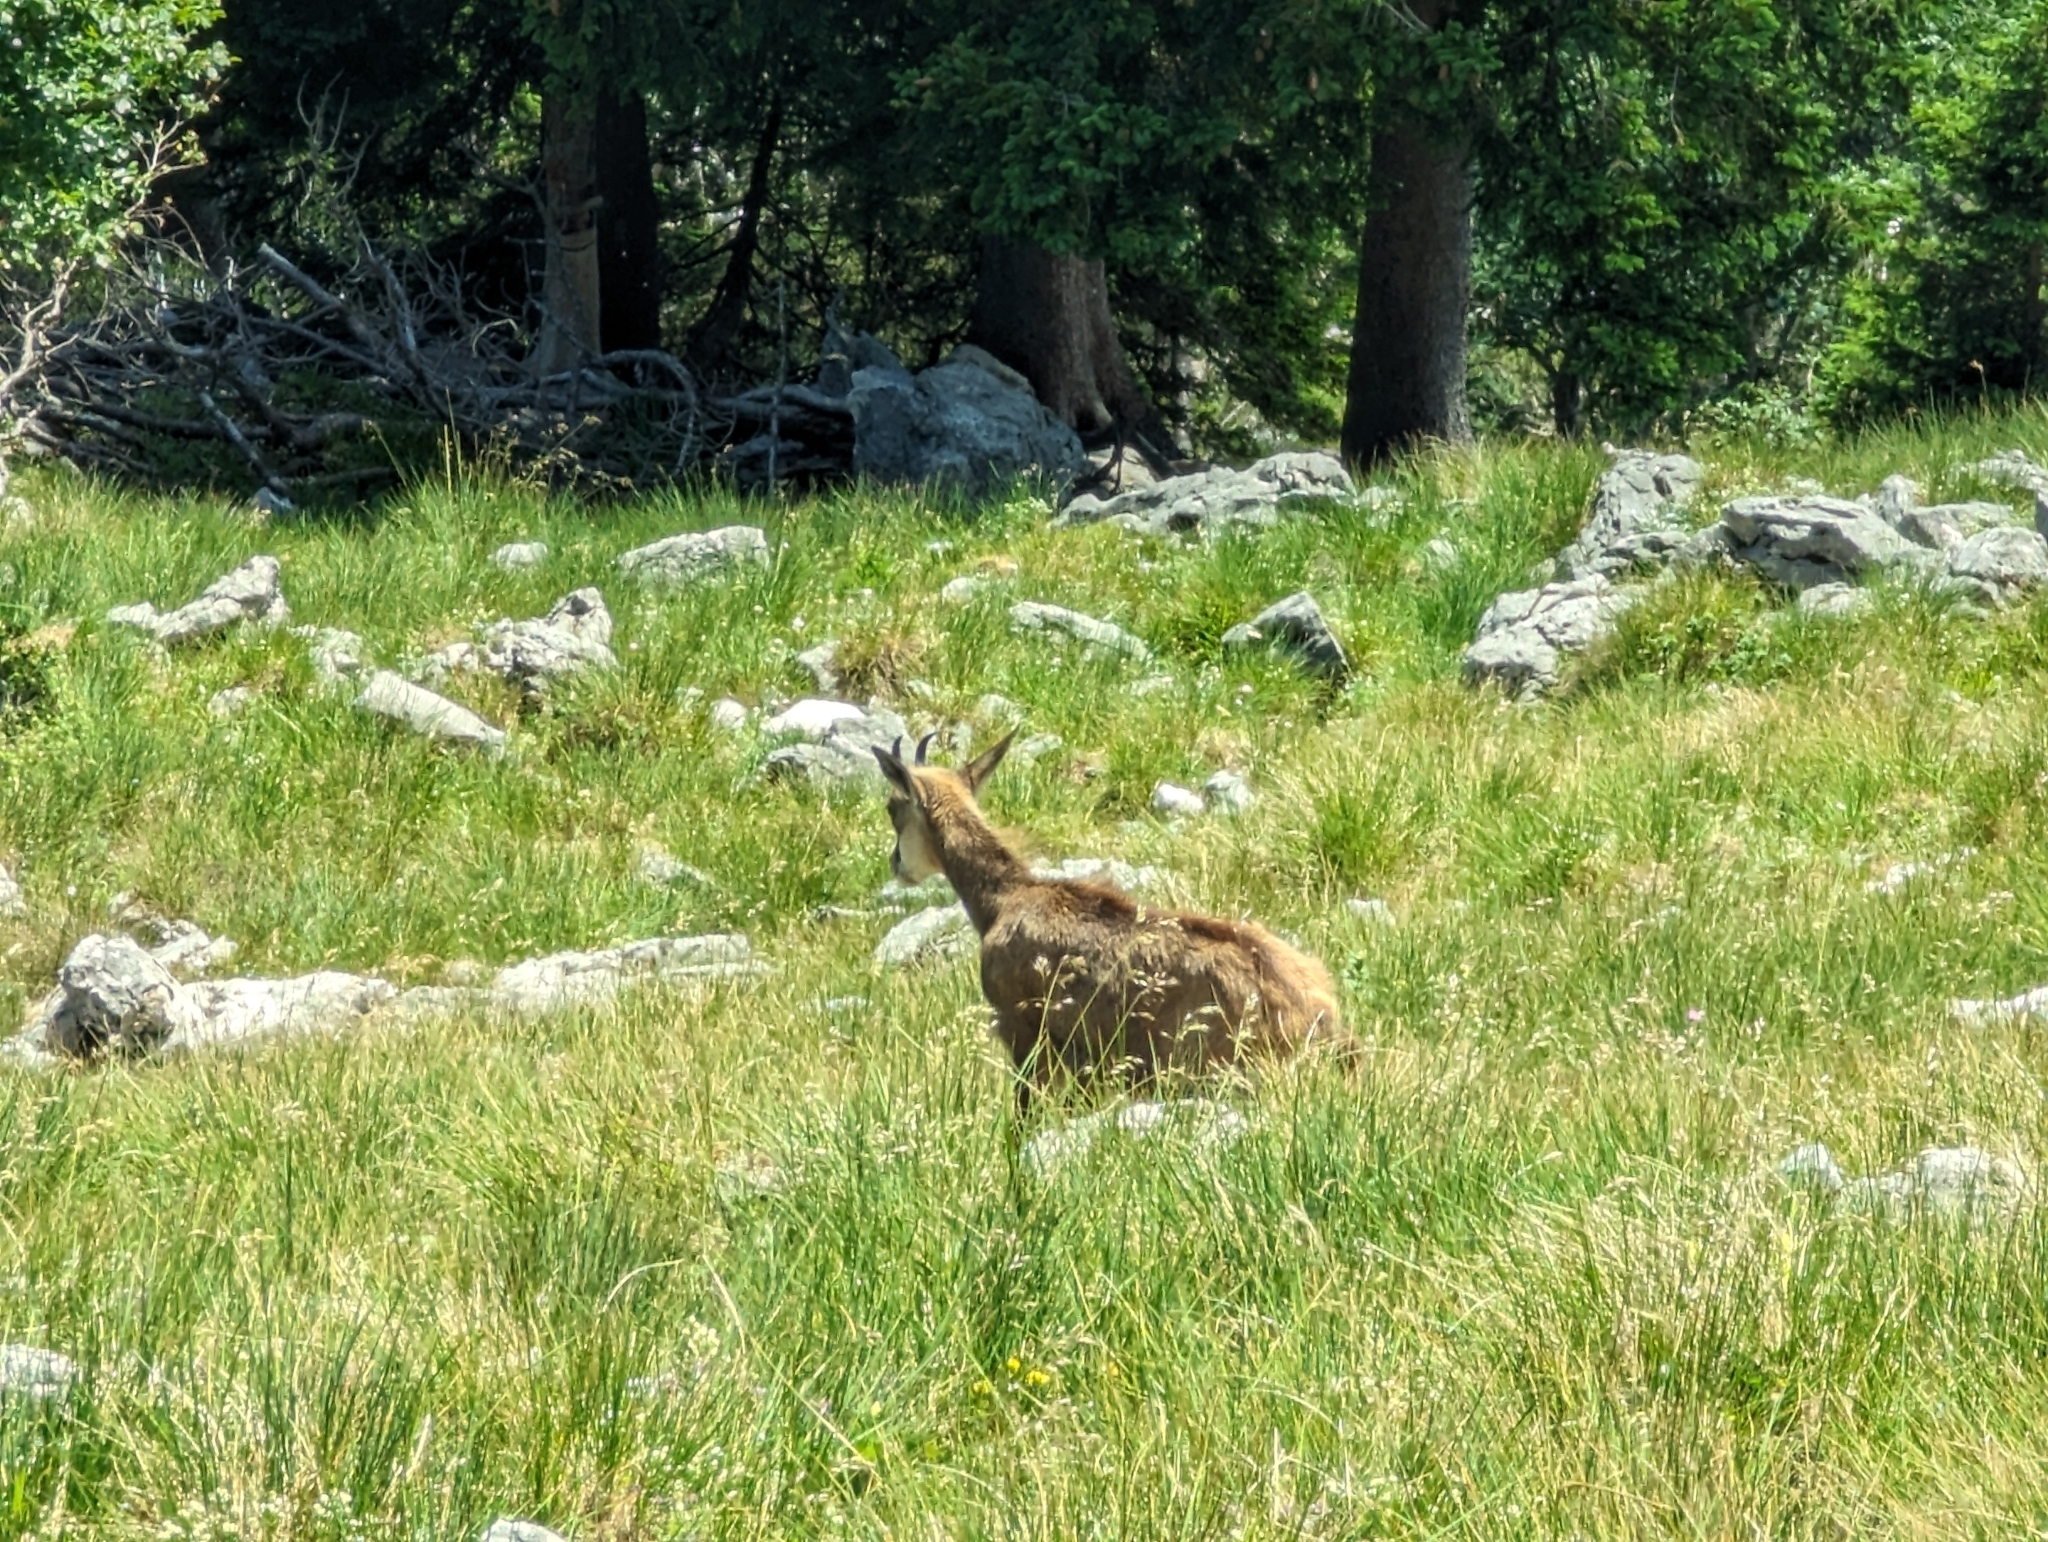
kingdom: Animalia
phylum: Chordata
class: Mammalia
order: Artiodactyla
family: Bovidae
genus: Rupicapra
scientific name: Rupicapra rupicapra
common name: Chamois
